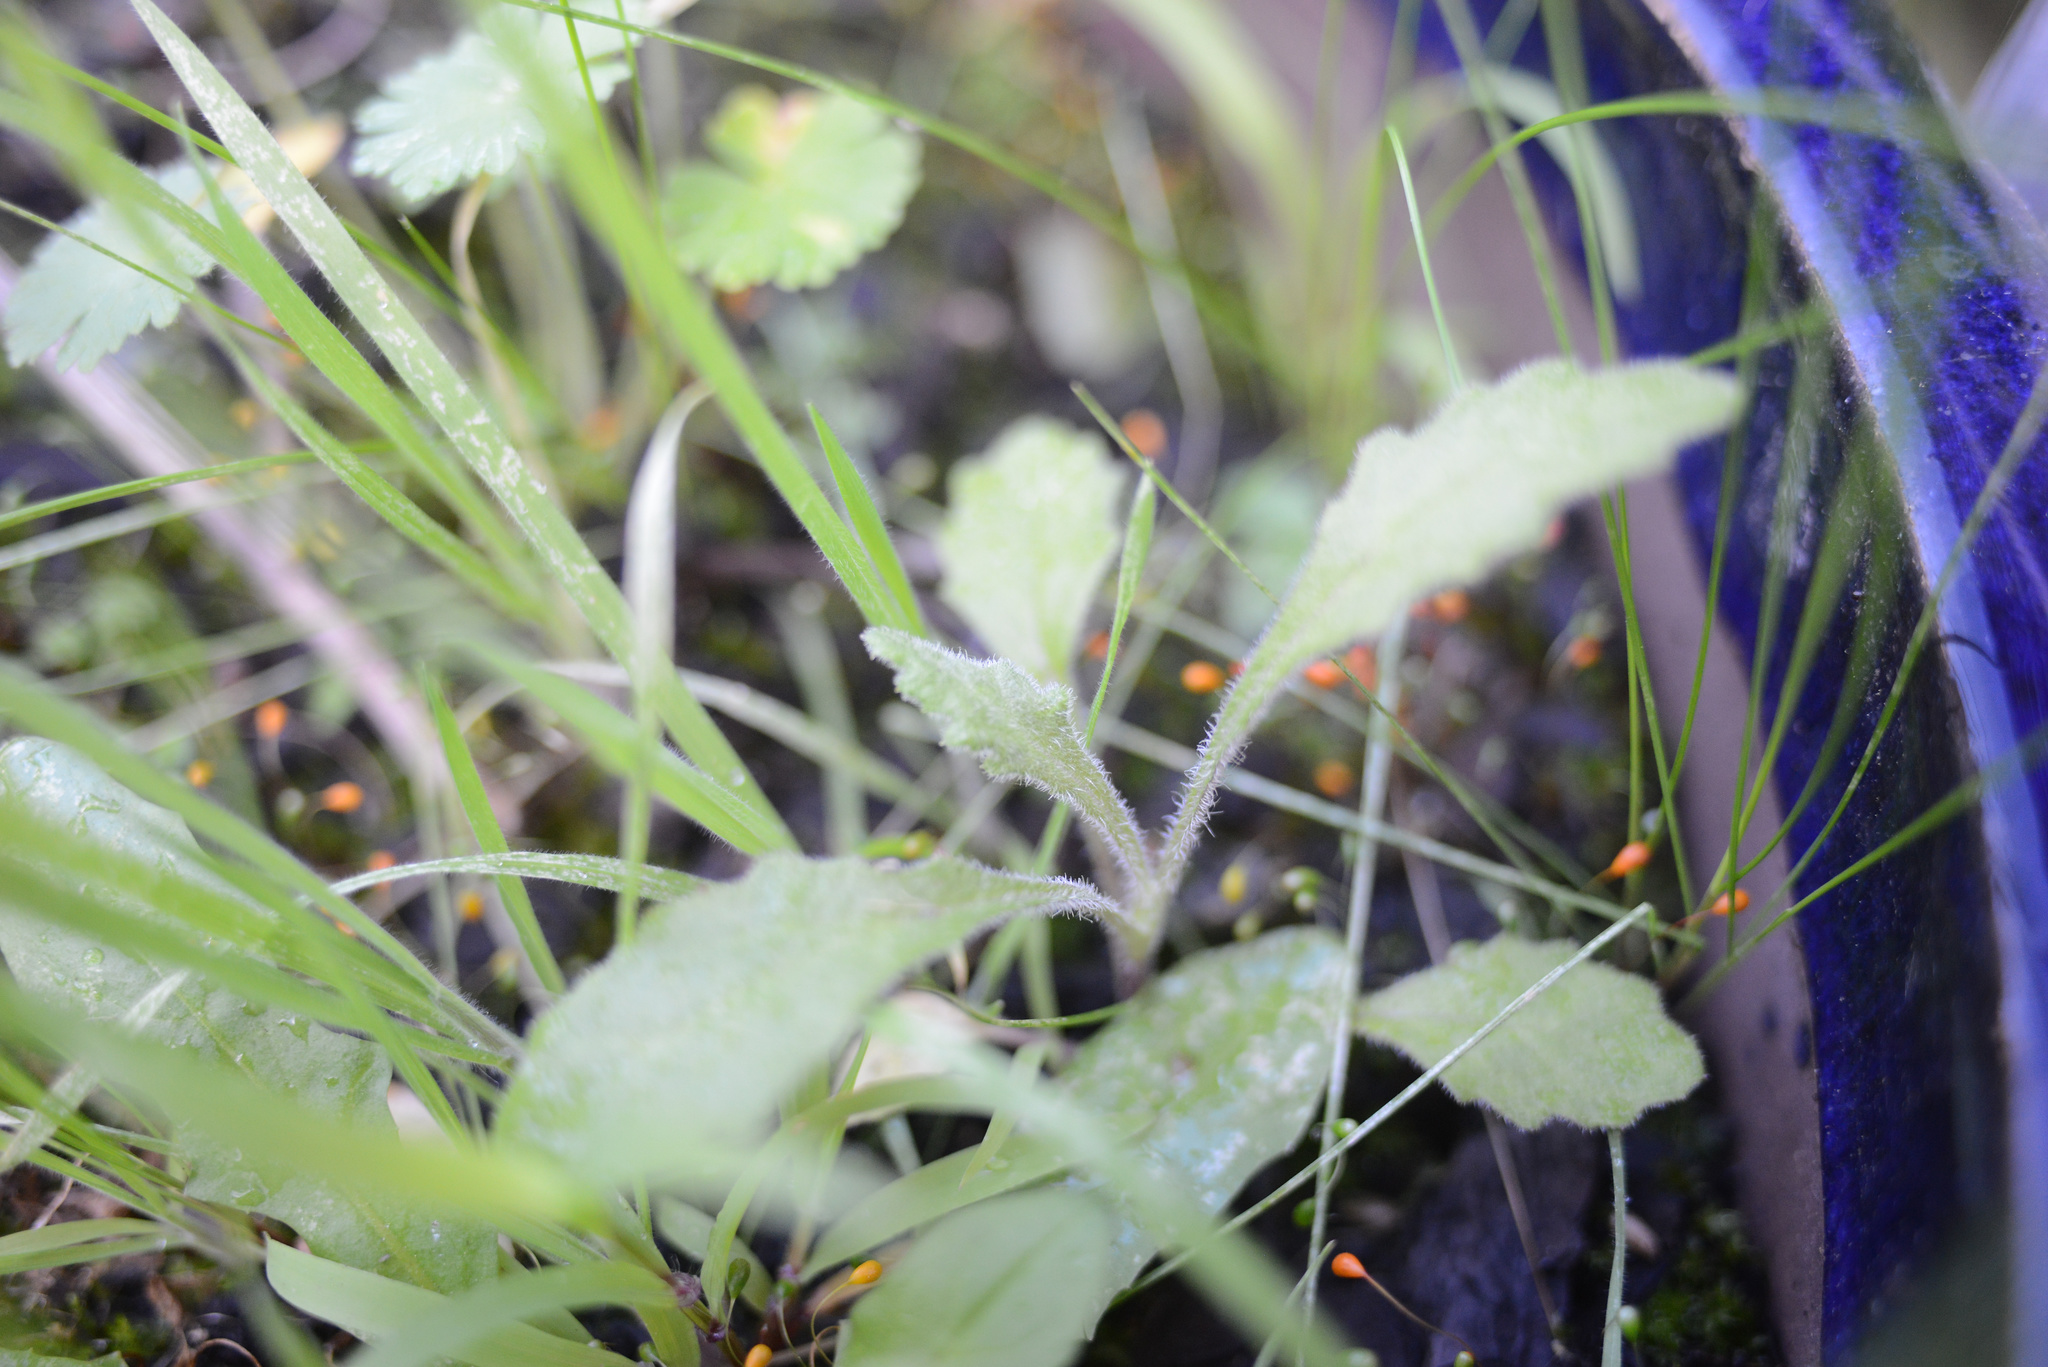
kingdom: Plantae
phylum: Tracheophyta
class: Magnoliopsida
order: Asterales
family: Asteraceae
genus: Senecio
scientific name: Senecio glomeratus
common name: Cutleaf burnweed
